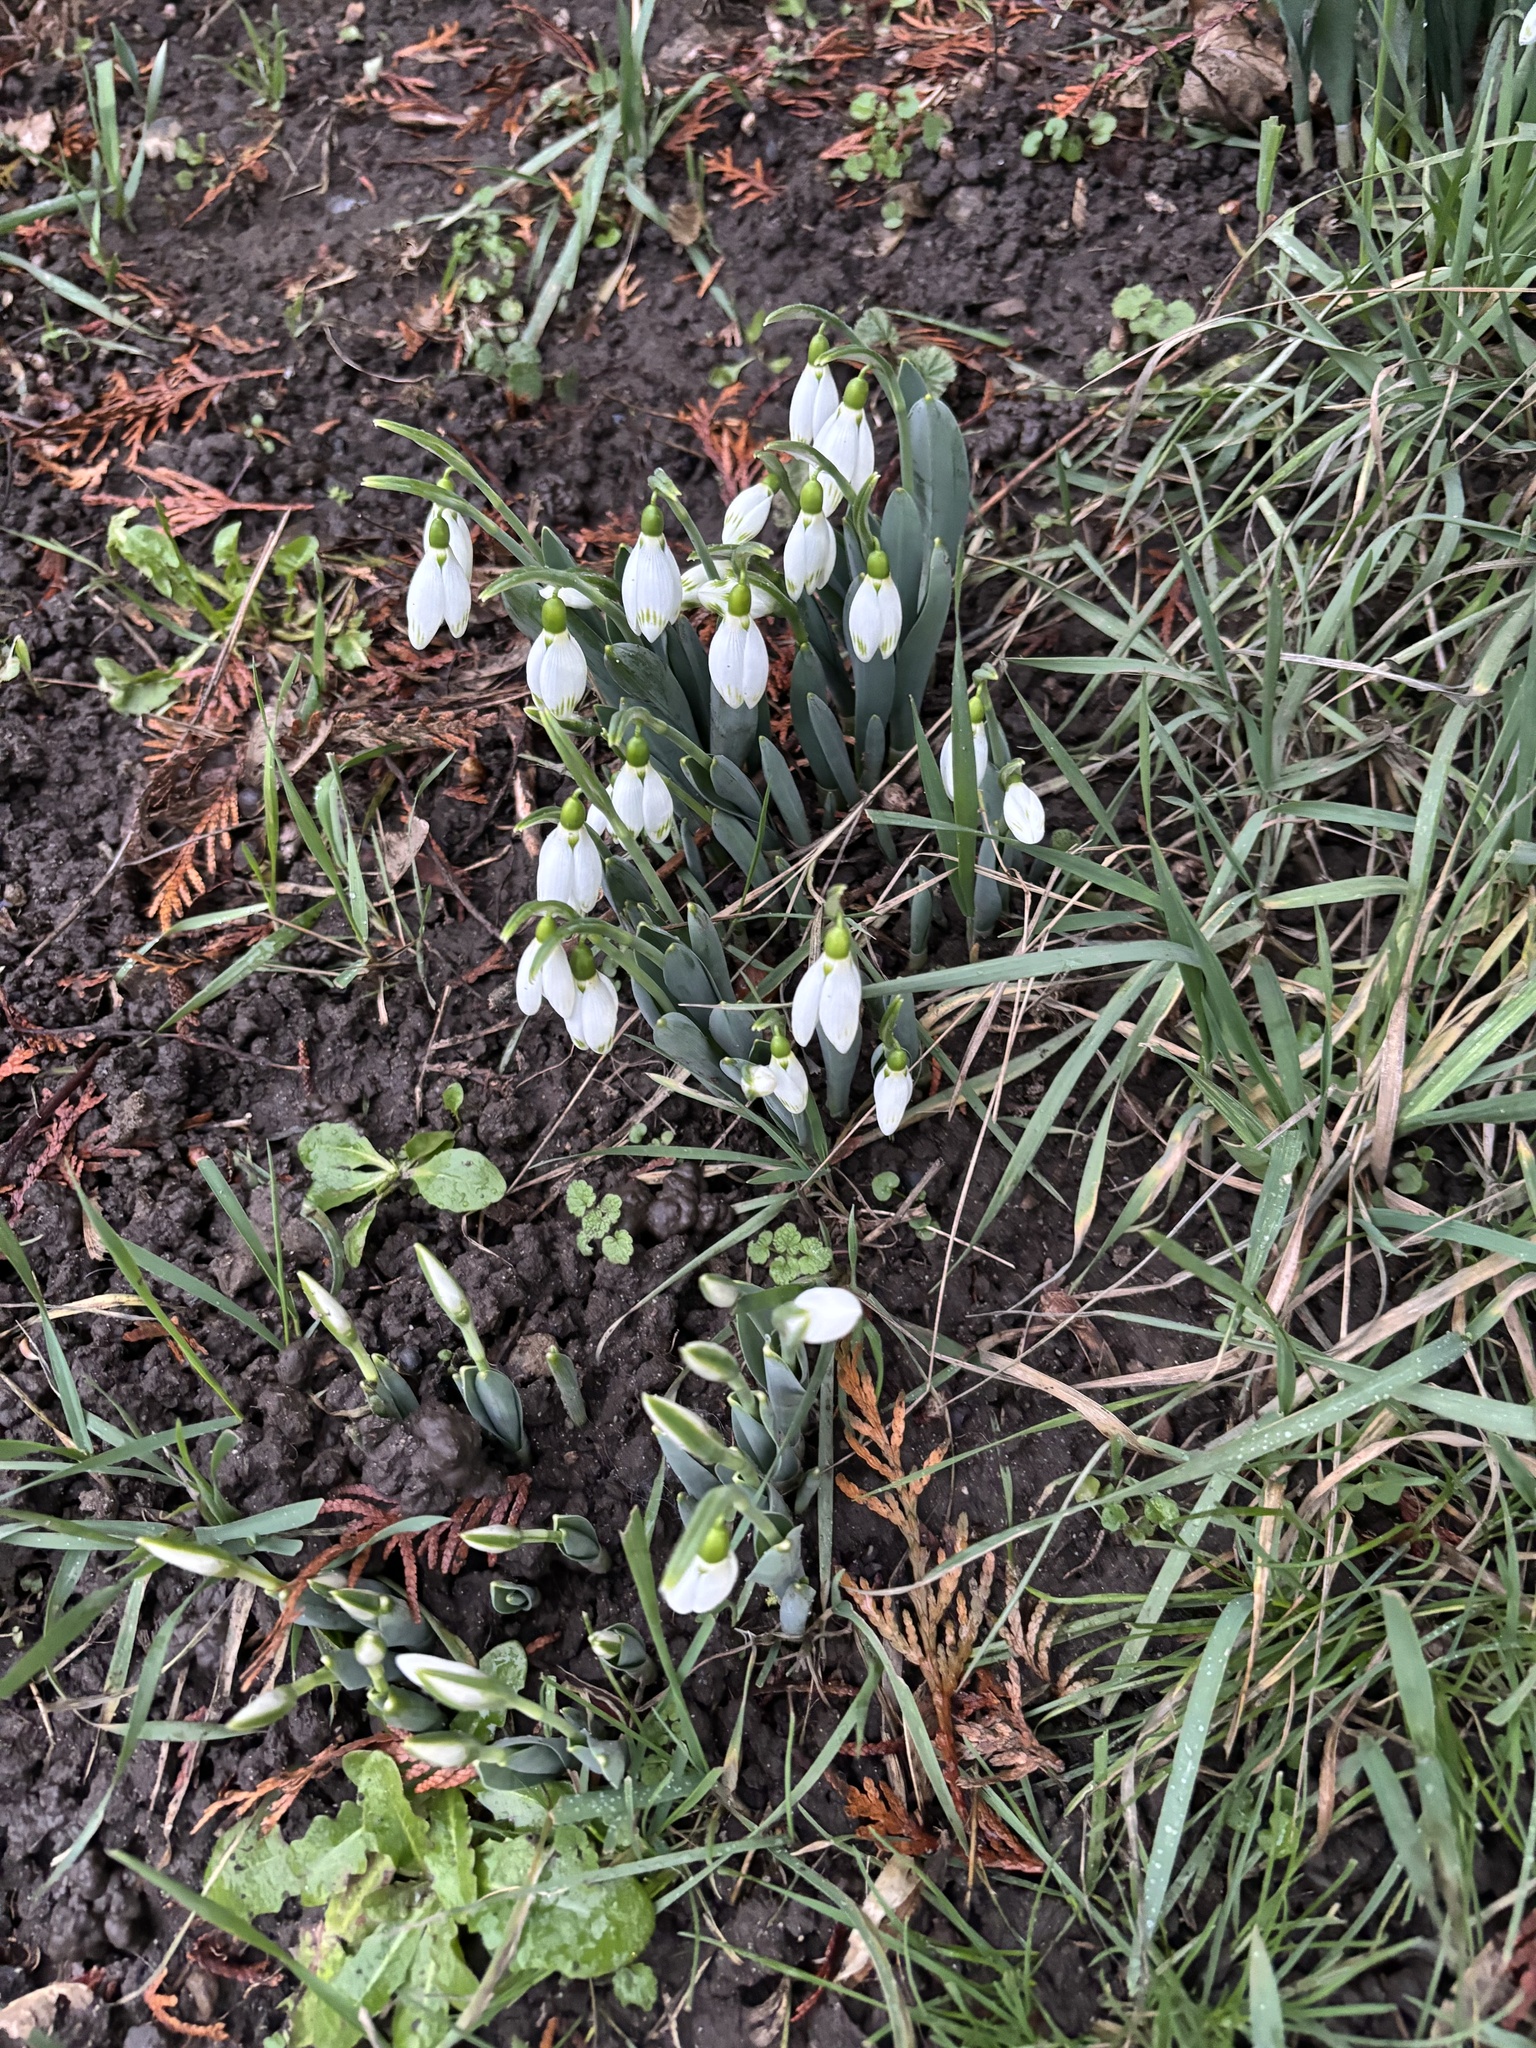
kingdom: Plantae
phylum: Tracheophyta
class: Liliopsida
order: Asparagales
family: Amaryllidaceae
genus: Galanthus
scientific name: Galanthus elwesii
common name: Greater snowdrop
